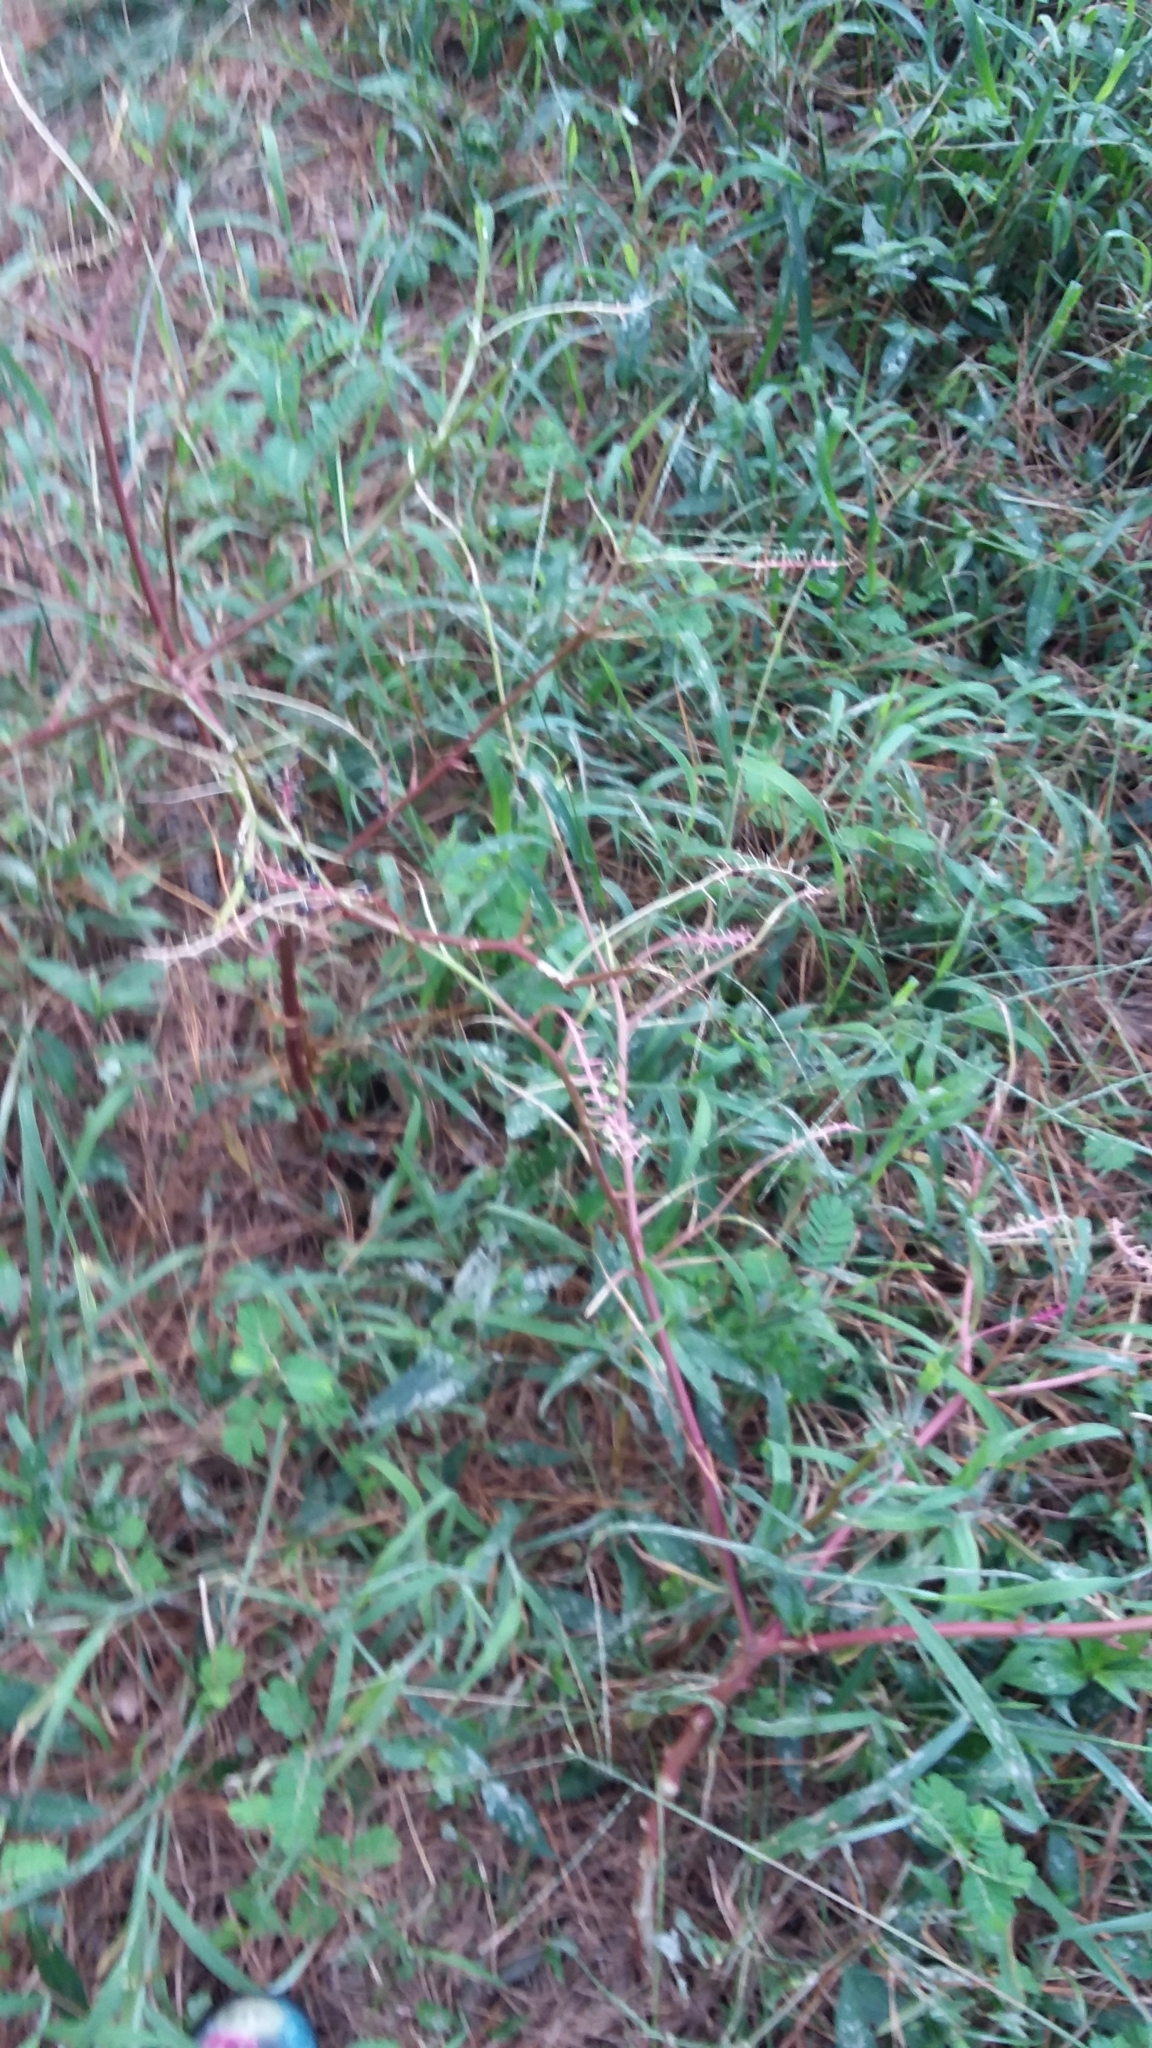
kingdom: Plantae
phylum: Tracheophyta
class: Magnoliopsida
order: Caryophyllales
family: Phytolaccaceae
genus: Phytolacca
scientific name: Phytolacca americana
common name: American pokeweed
